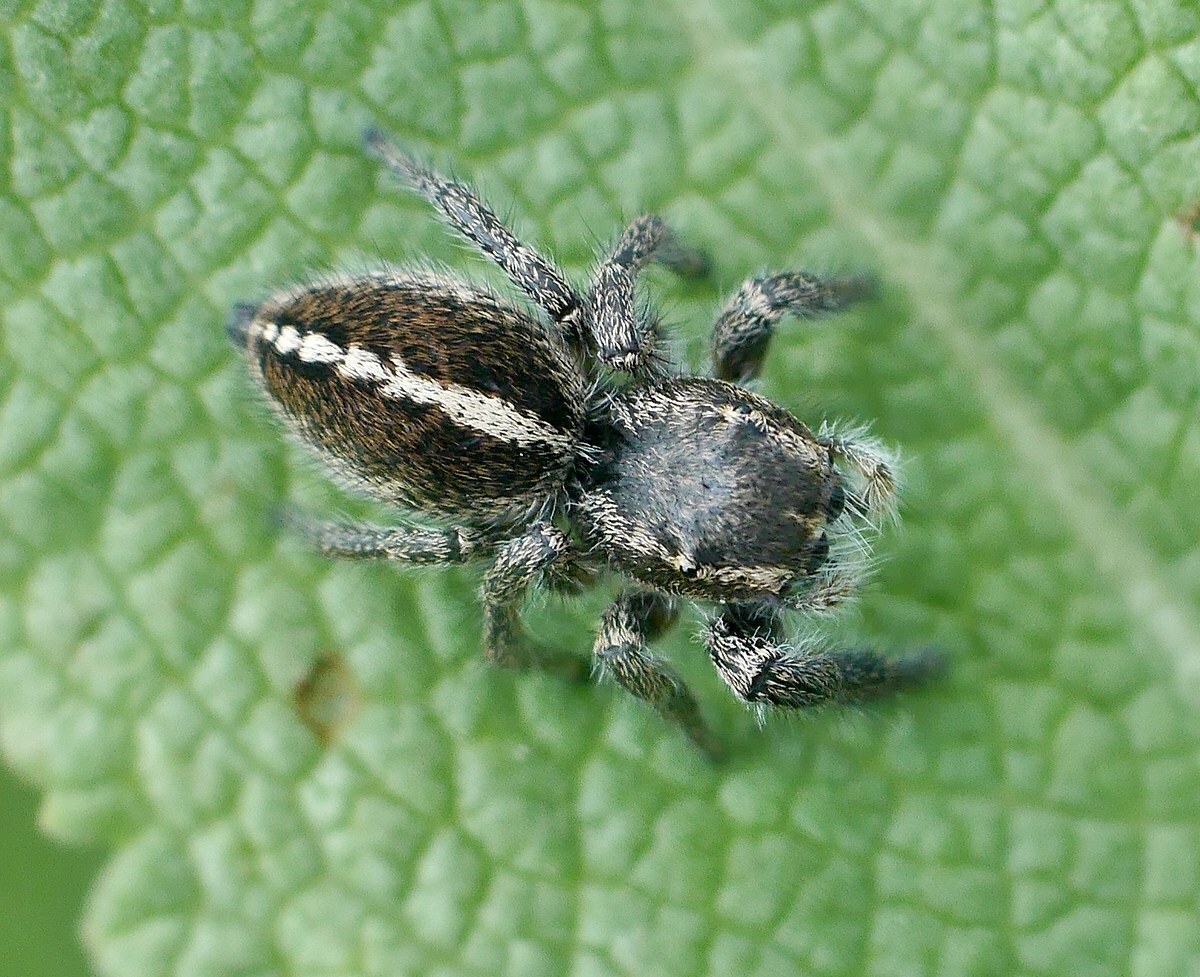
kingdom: Animalia
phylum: Arthropoda
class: Arachnida
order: Araneae
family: Salticidae
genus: Pellenes
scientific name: Pellenes seriatus
